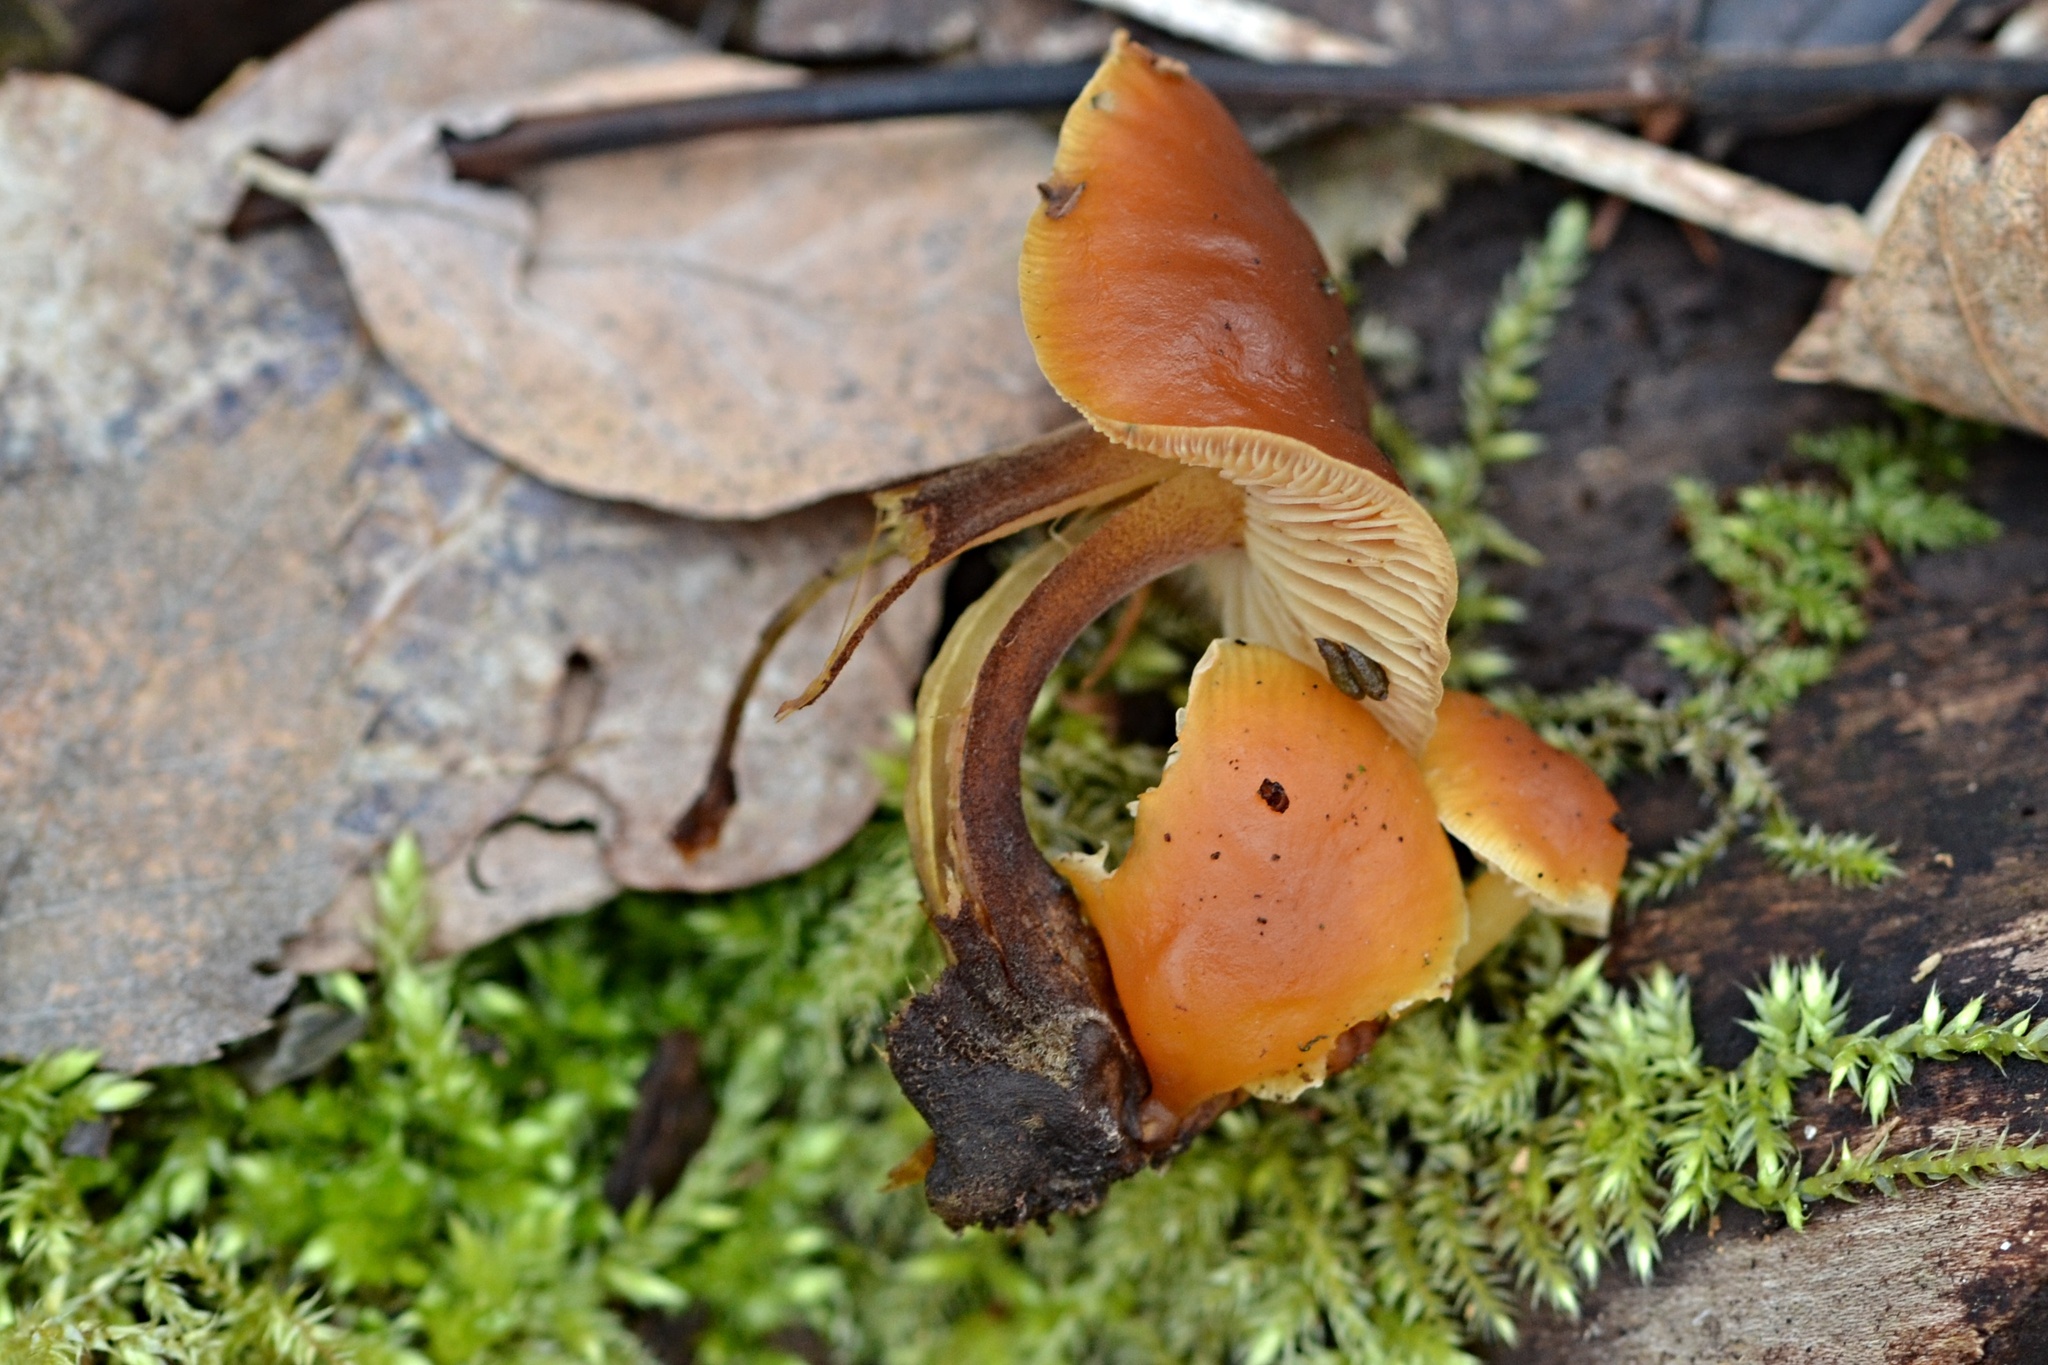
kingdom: Fungi
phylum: Basidiomycota
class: Agaricomycetes
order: Agaricales
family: Physalacriaceae
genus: Flammulina
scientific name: Flammulina
